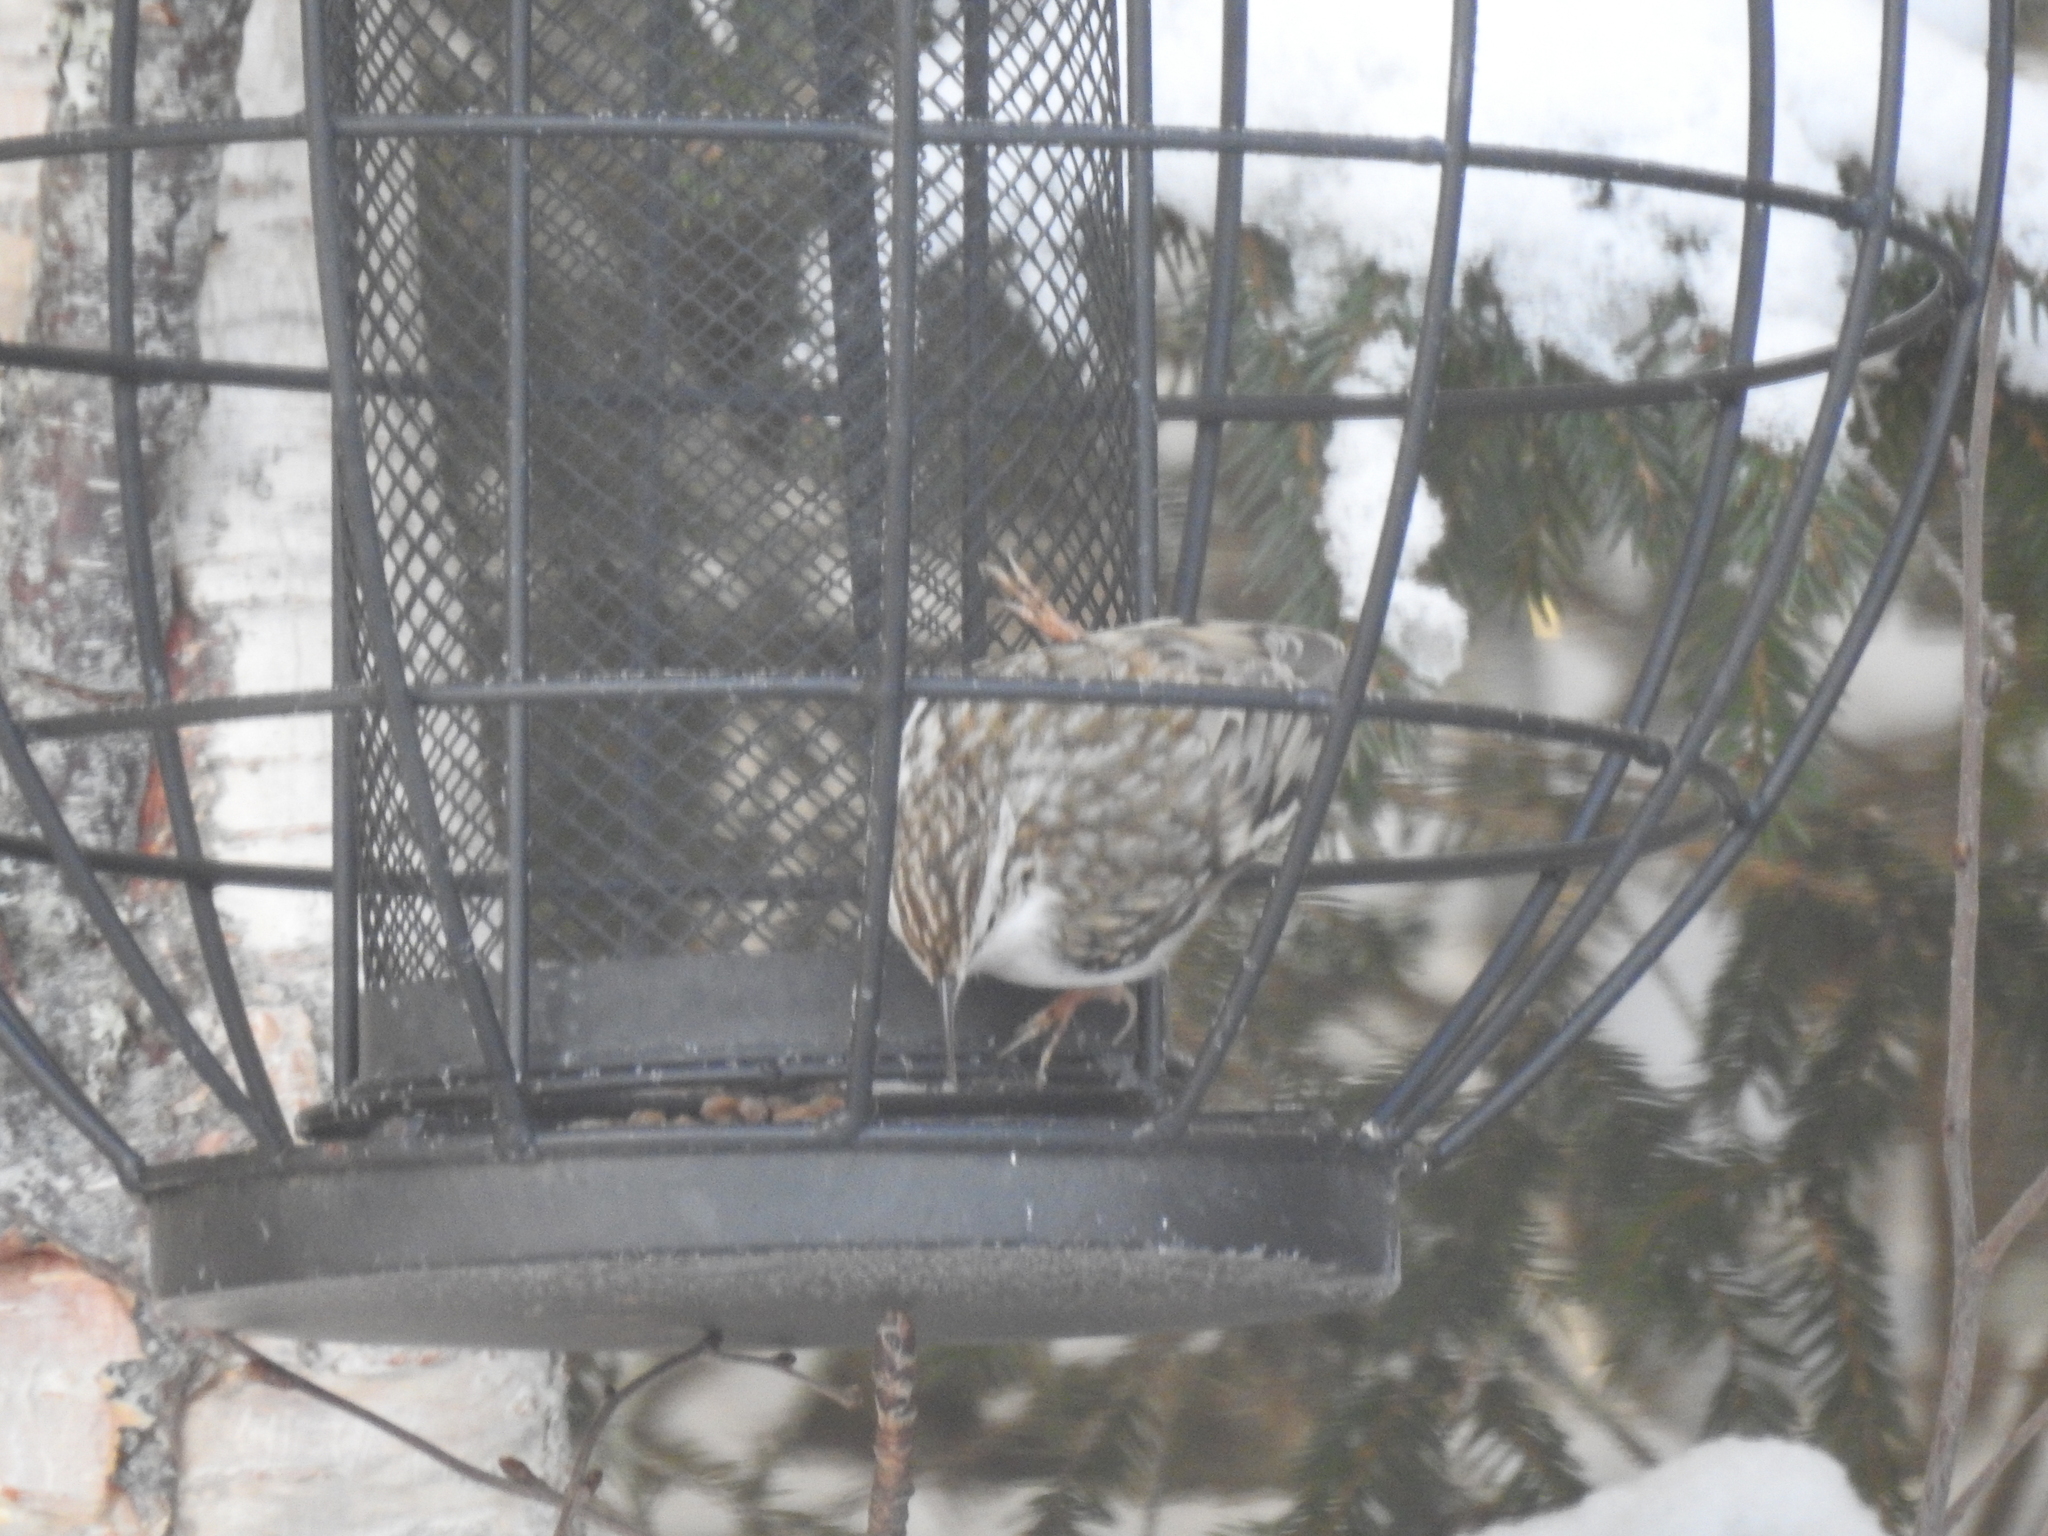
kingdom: Animalia
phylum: Chordata
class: Aves
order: Passeriformes
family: Certhiidae
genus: Certhia
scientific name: Certhia familiaris
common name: Eurasian treecreeper
